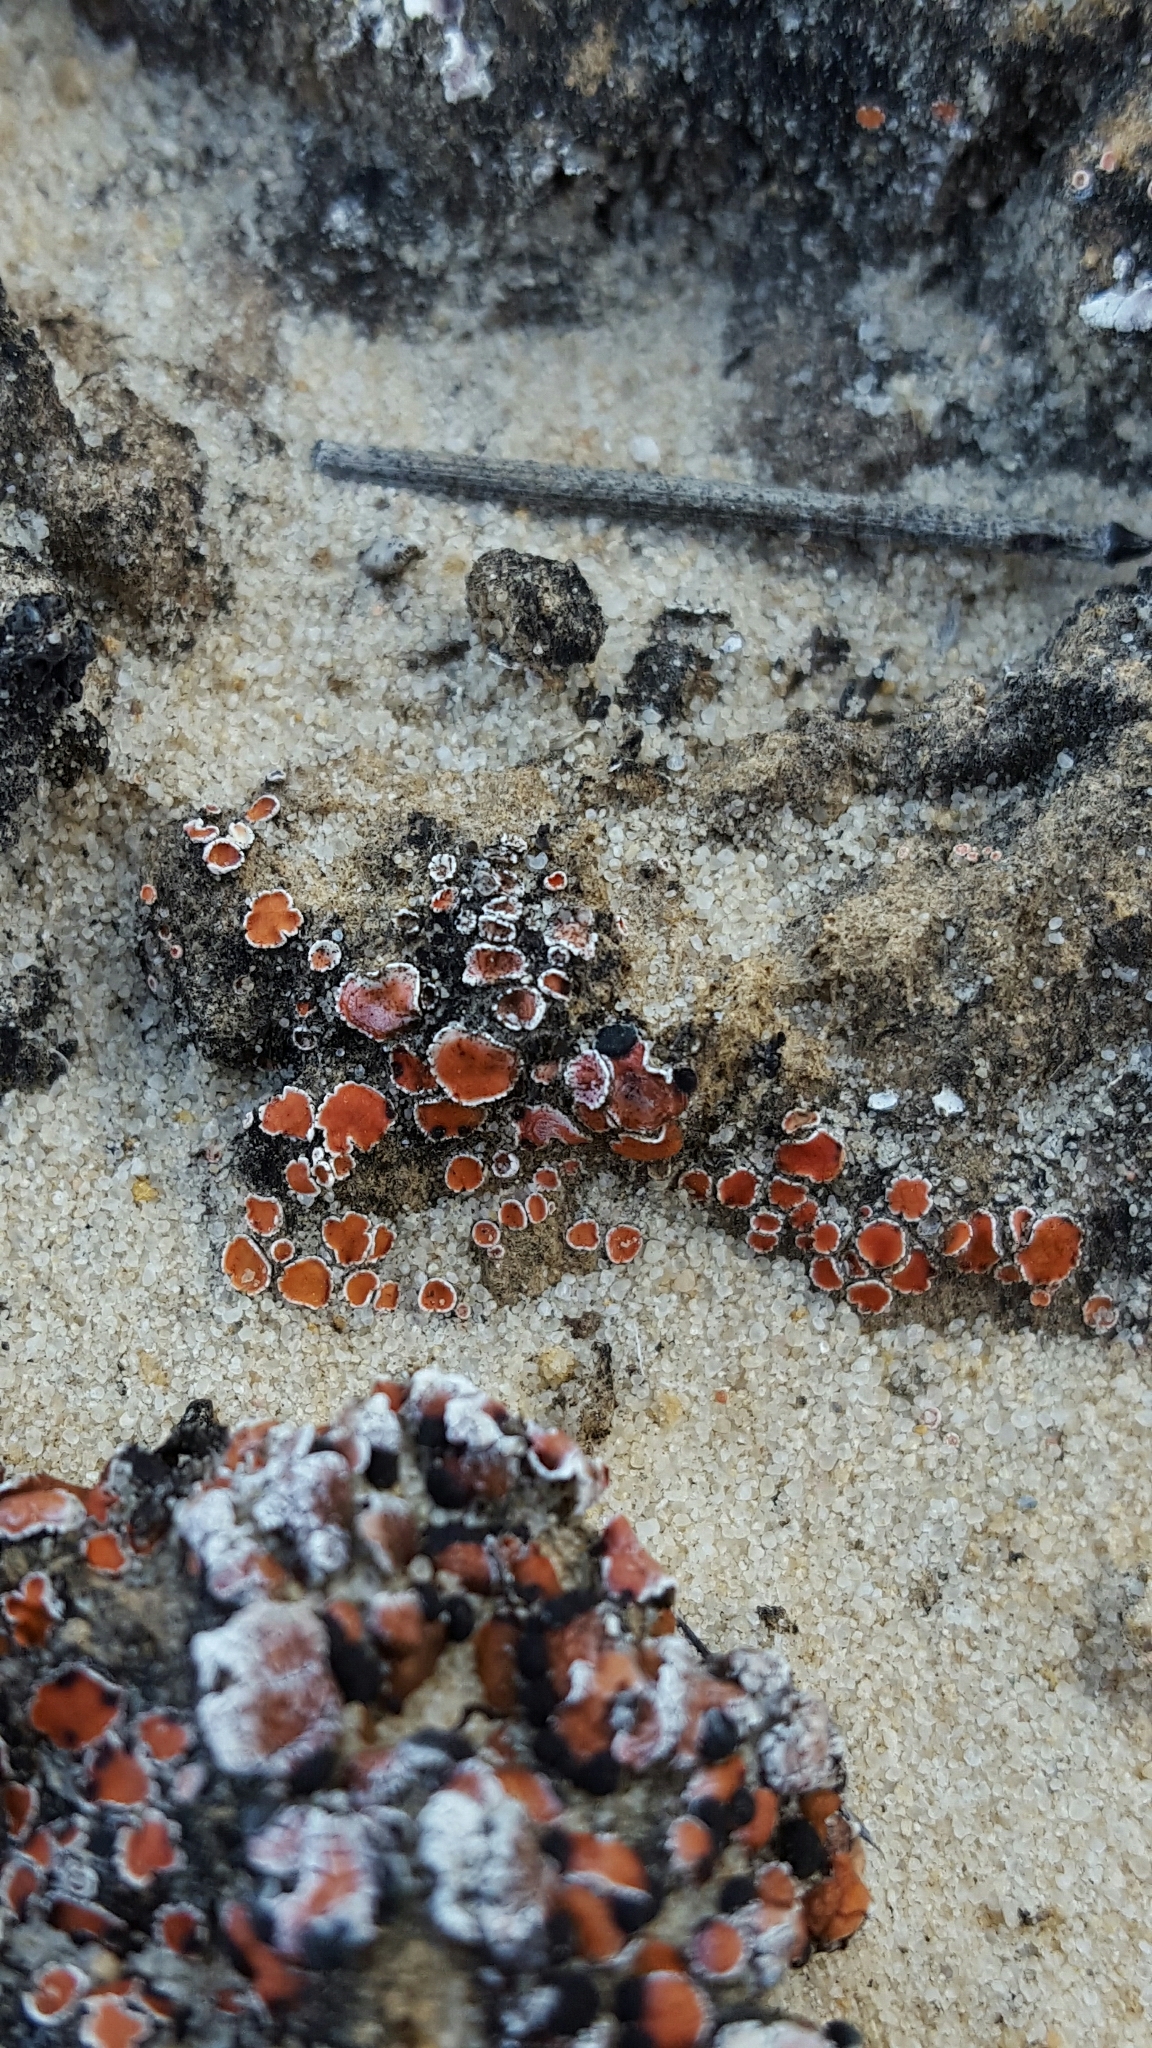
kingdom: Fungi
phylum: Ascomycota
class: Lecanoromycetes
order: Lecanorales
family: Psoraceae
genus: Psora
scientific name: Psora decipiens
